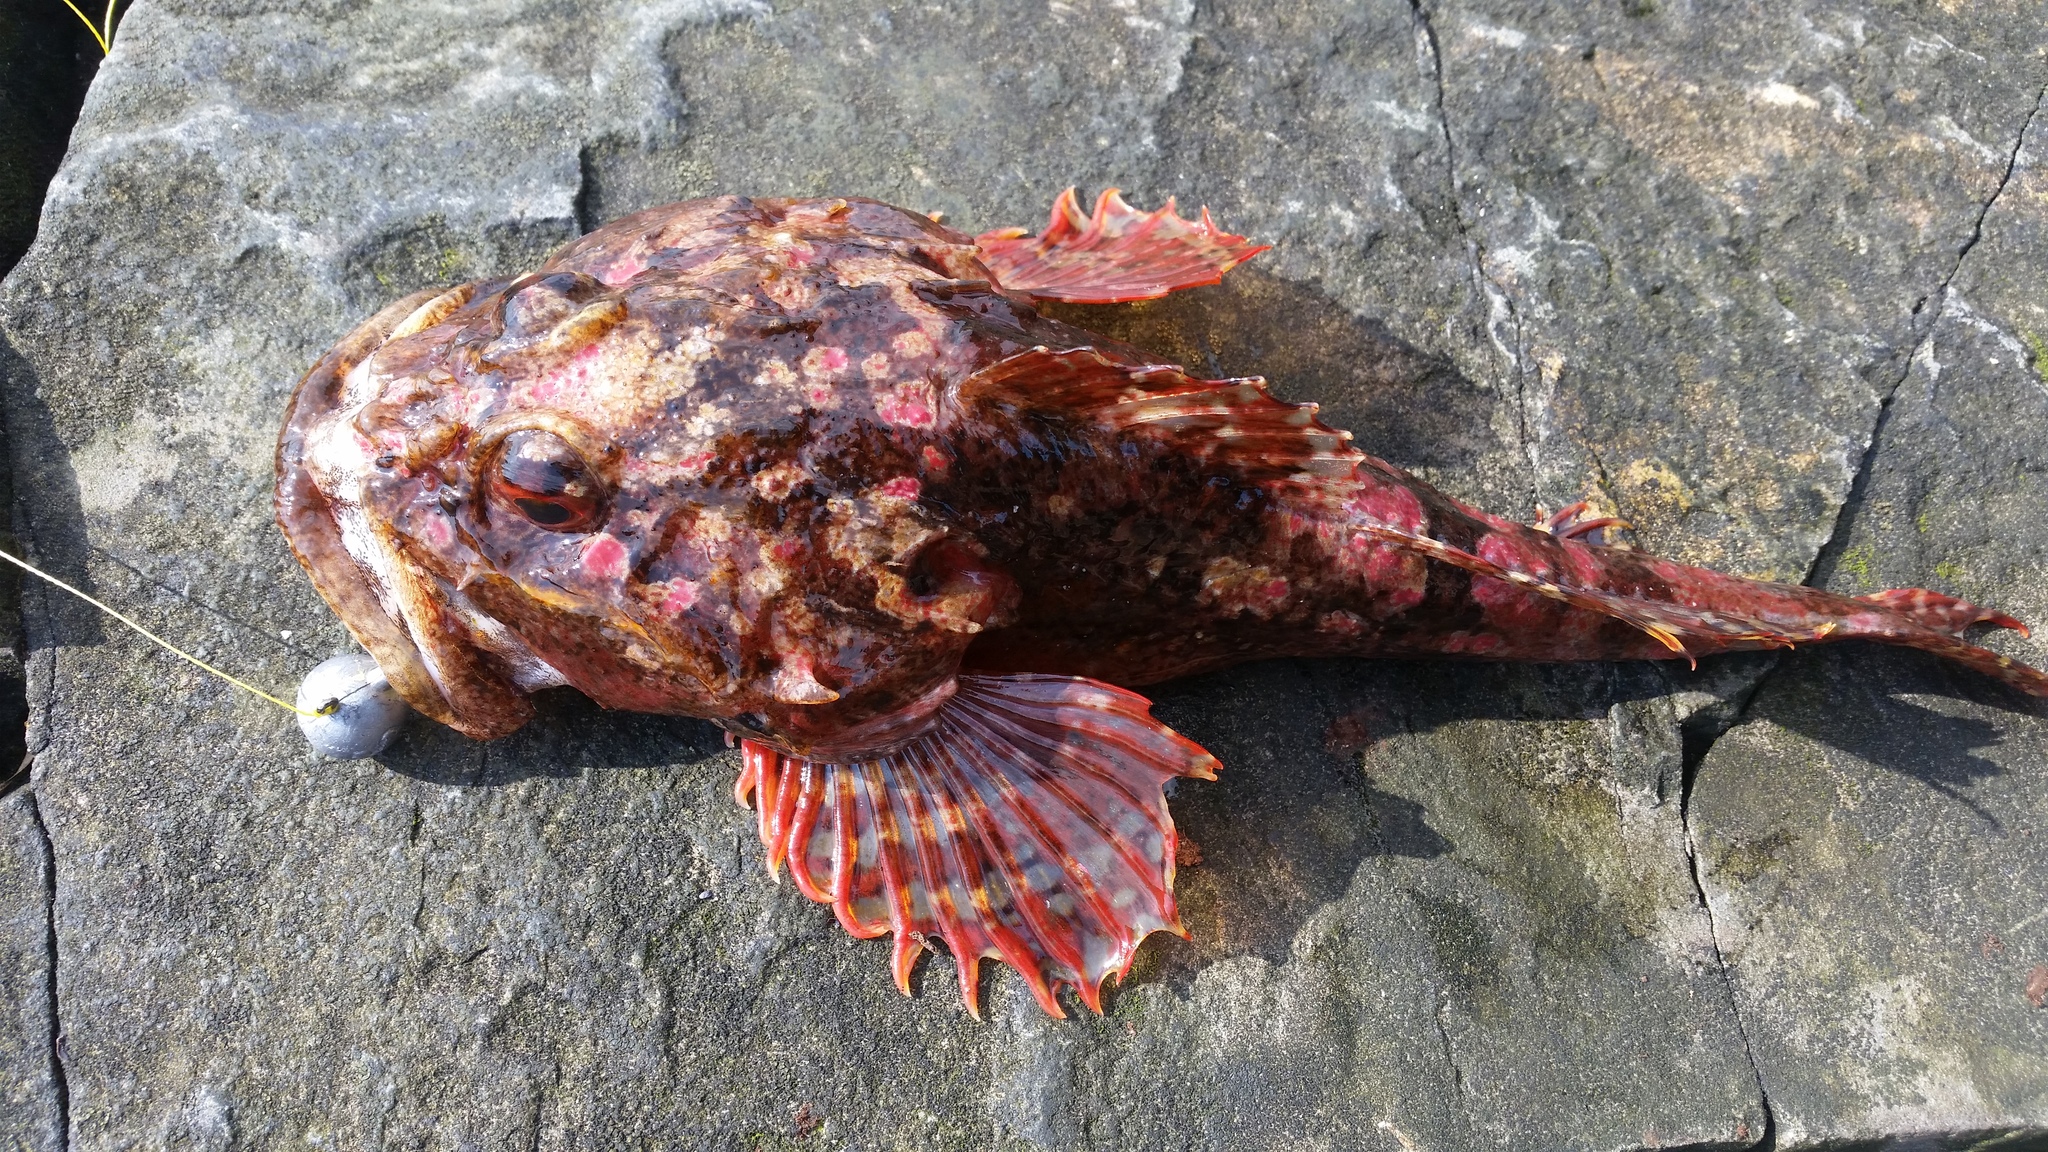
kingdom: Animalia
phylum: Chordata
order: Scorpaeniformes
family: Cottidae
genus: Myoxocephalus
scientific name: Myoxocephalus scorpius
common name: Shorthorn sculpin
